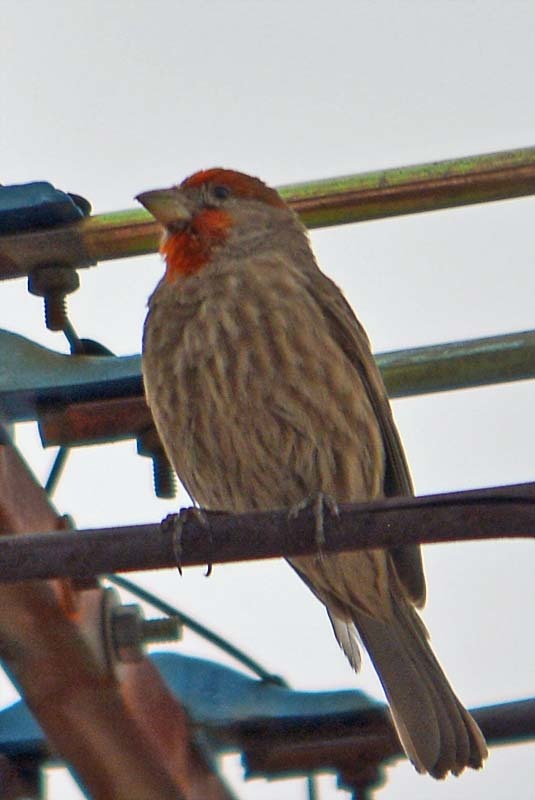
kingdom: Animalia
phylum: Chordata
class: Aves
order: Passeriformes
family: Fringillidae
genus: Haemorhous
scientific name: Haemorhous mexicanus
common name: House finch
